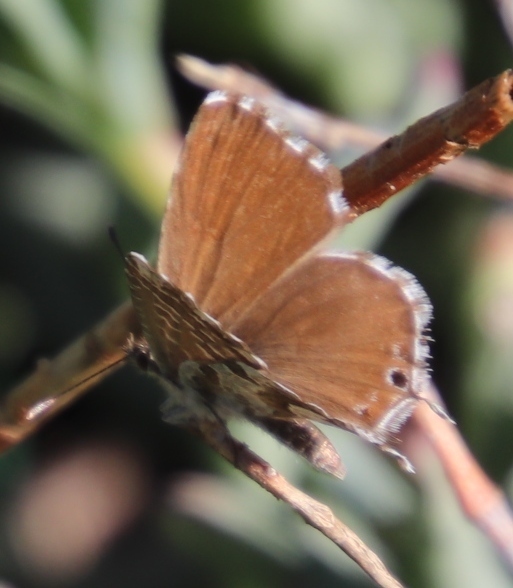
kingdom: Animalia
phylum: Arthropoda
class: Insecta
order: Lepidoptera
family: Lycaenidae
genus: Cacyreus
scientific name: Cacyreus marshalli
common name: Geranium bronze
